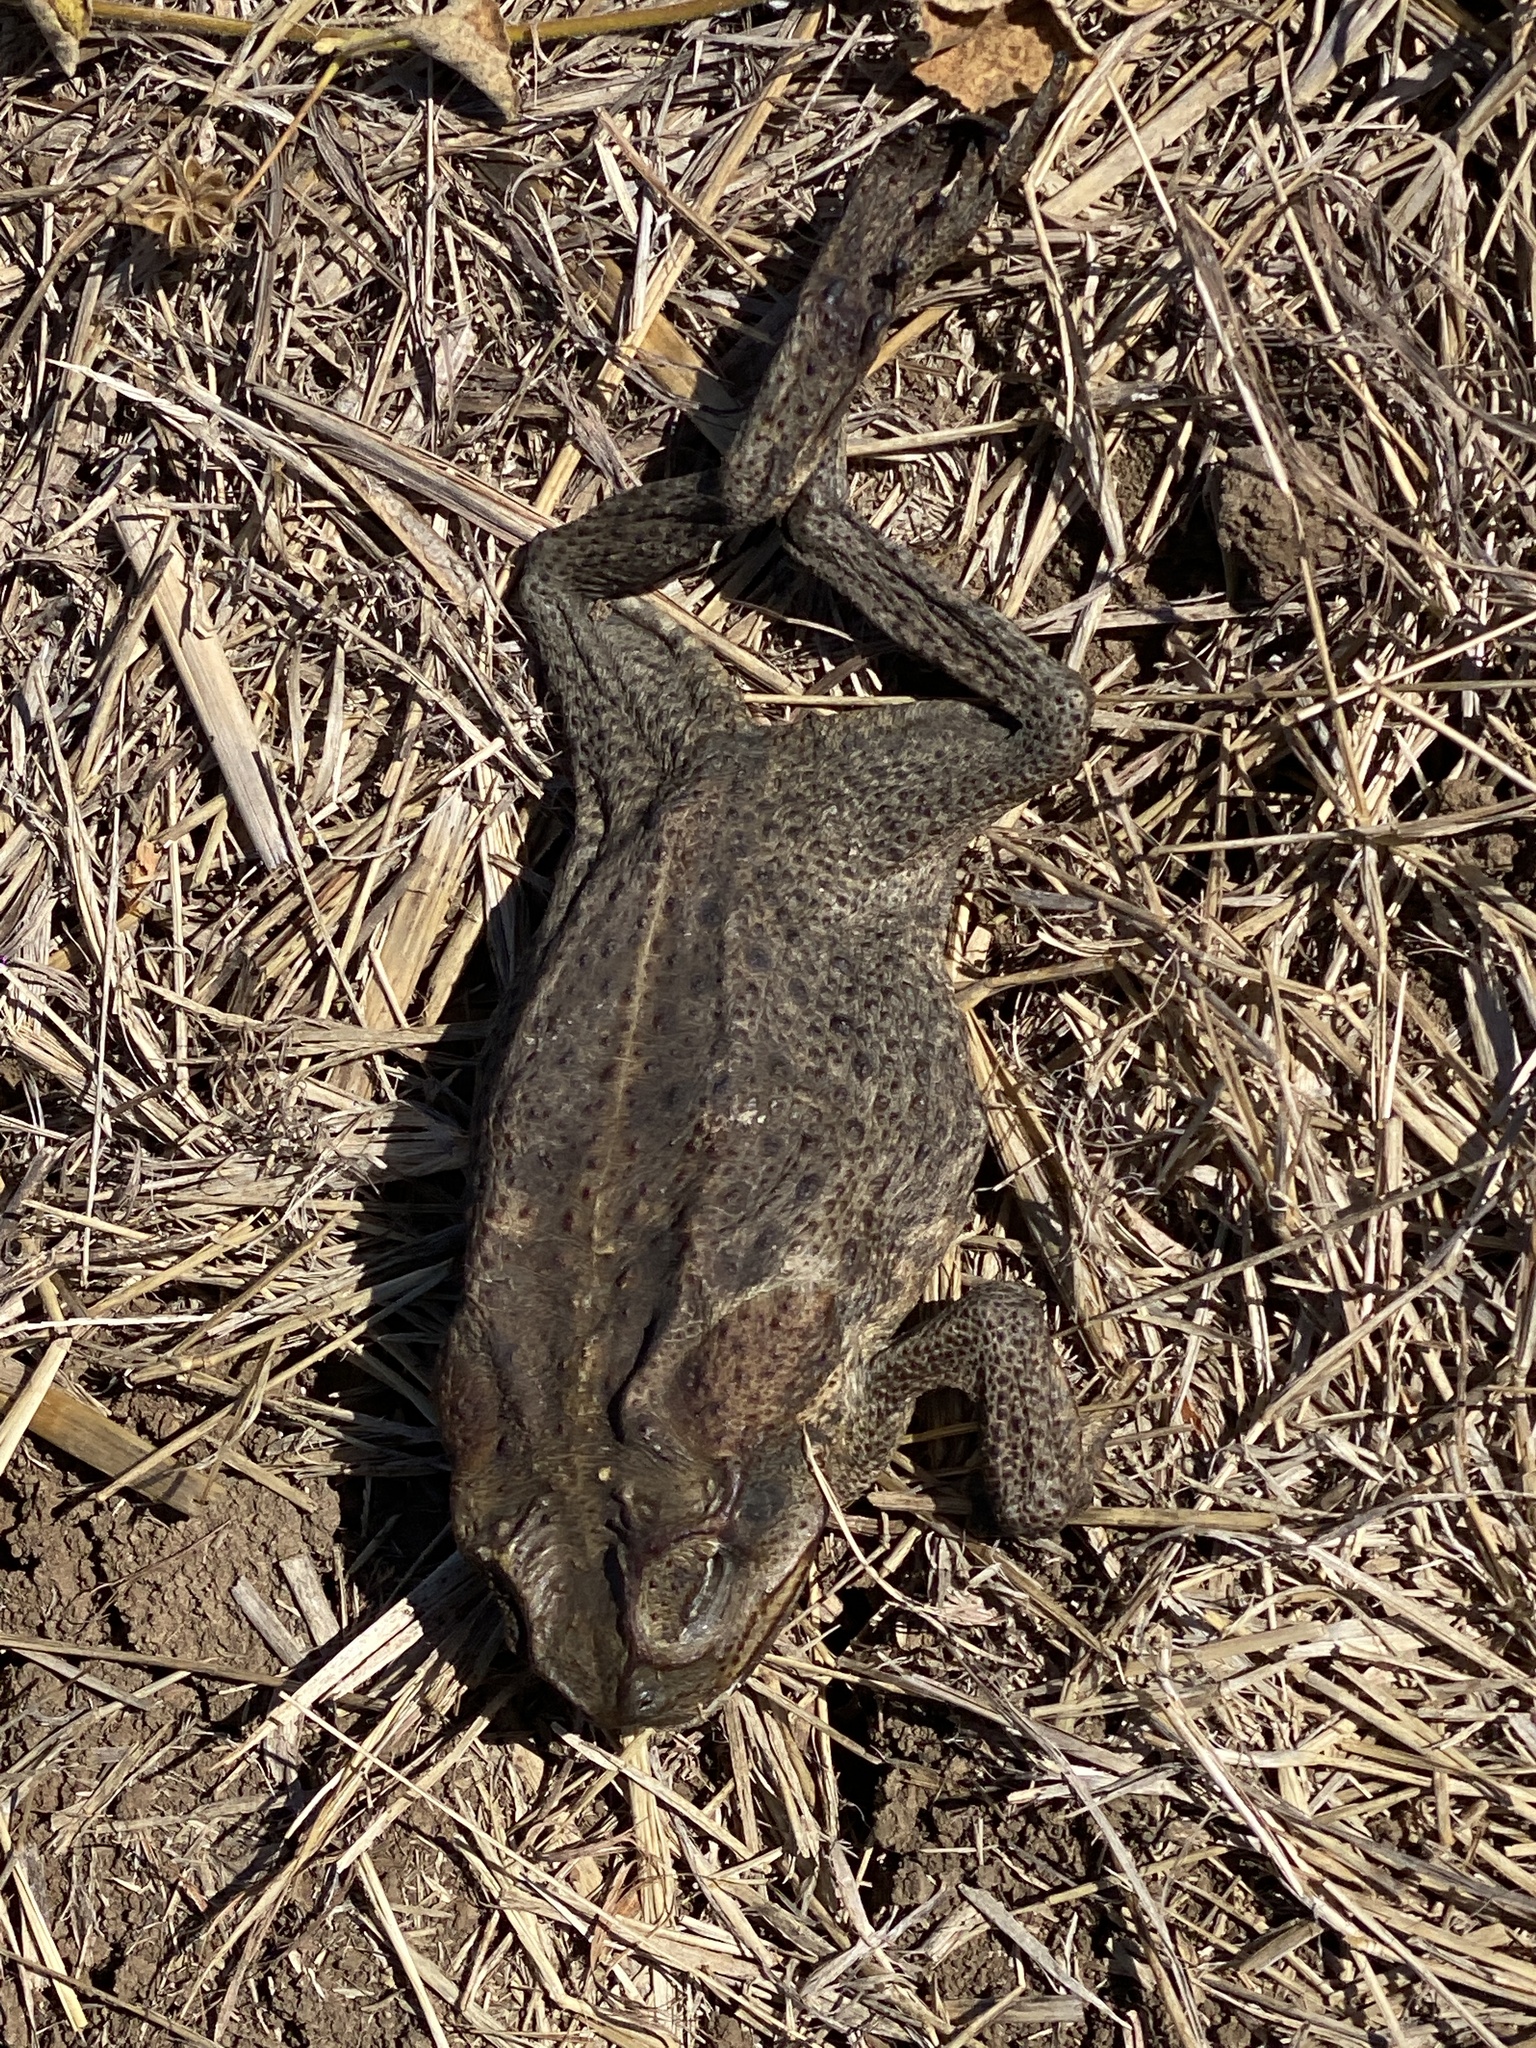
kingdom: Animalia
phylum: Chordata
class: Amphibia
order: Anura
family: Bufonidae
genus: Rhinella
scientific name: Rhinella marina
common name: Cane toad
